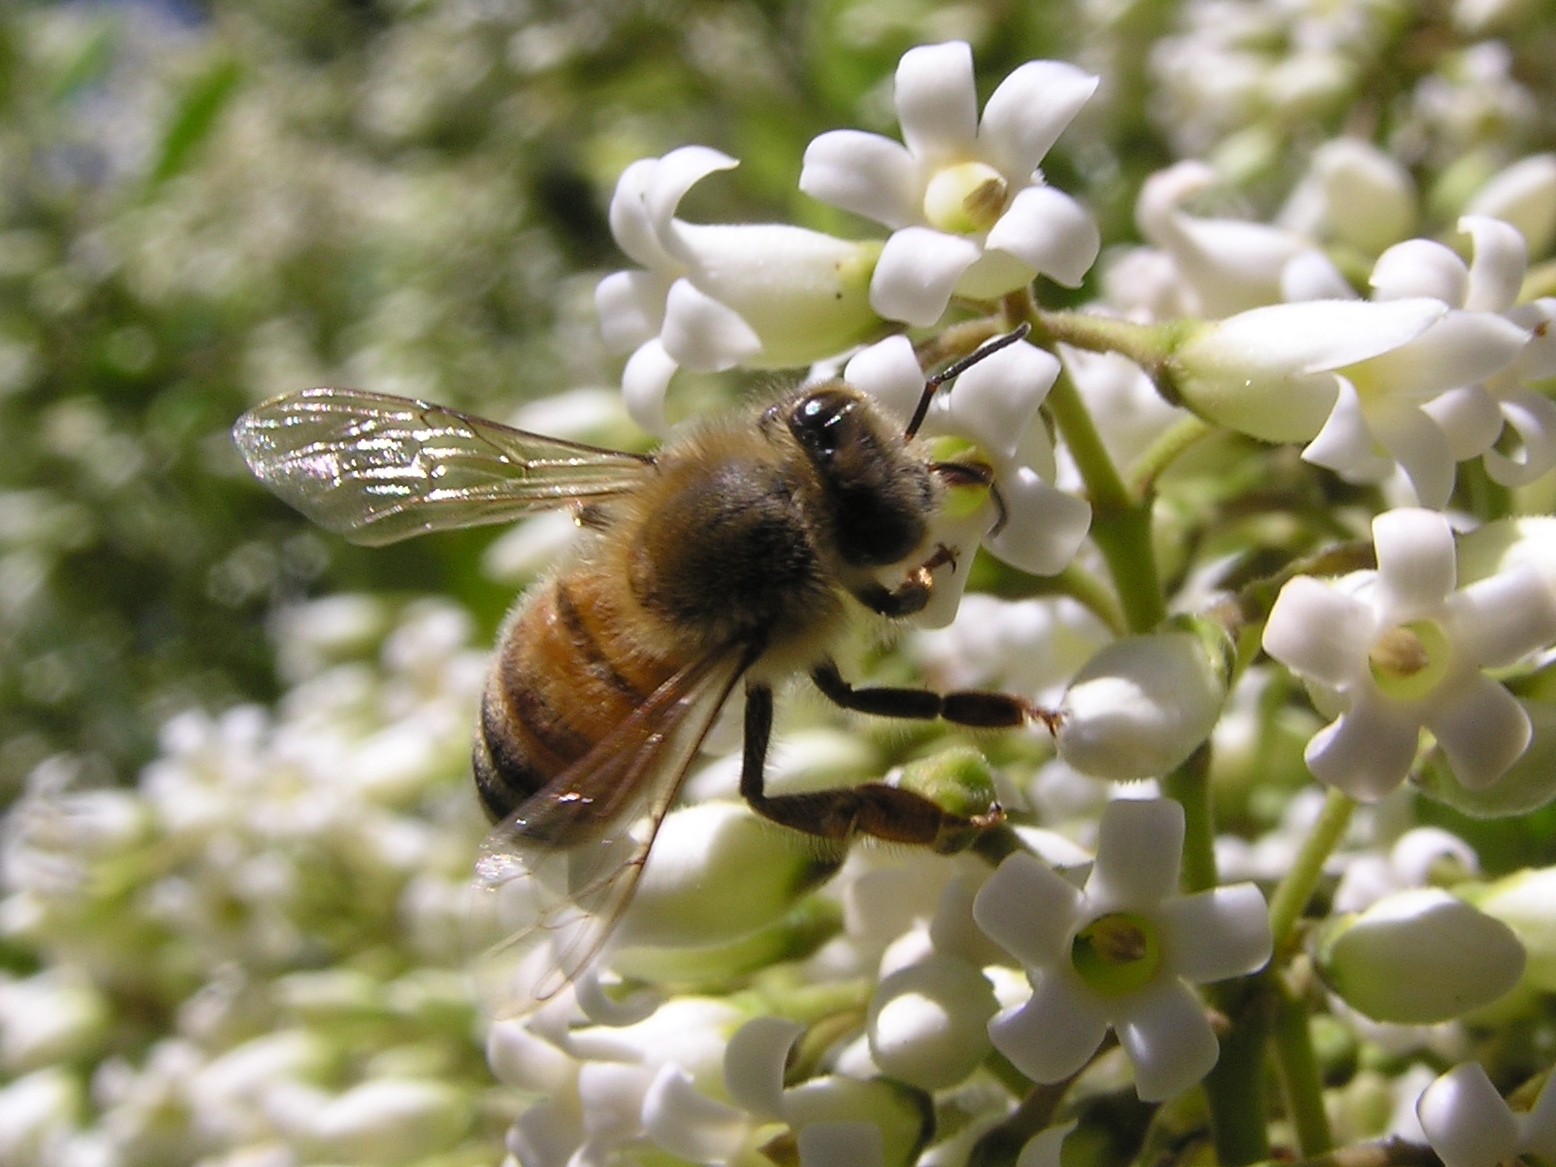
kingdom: Animalia
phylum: Arthropoda
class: Insecta
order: Hymenoptera
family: Apidae
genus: Apis
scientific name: Apis mellifera
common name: Honey bee
